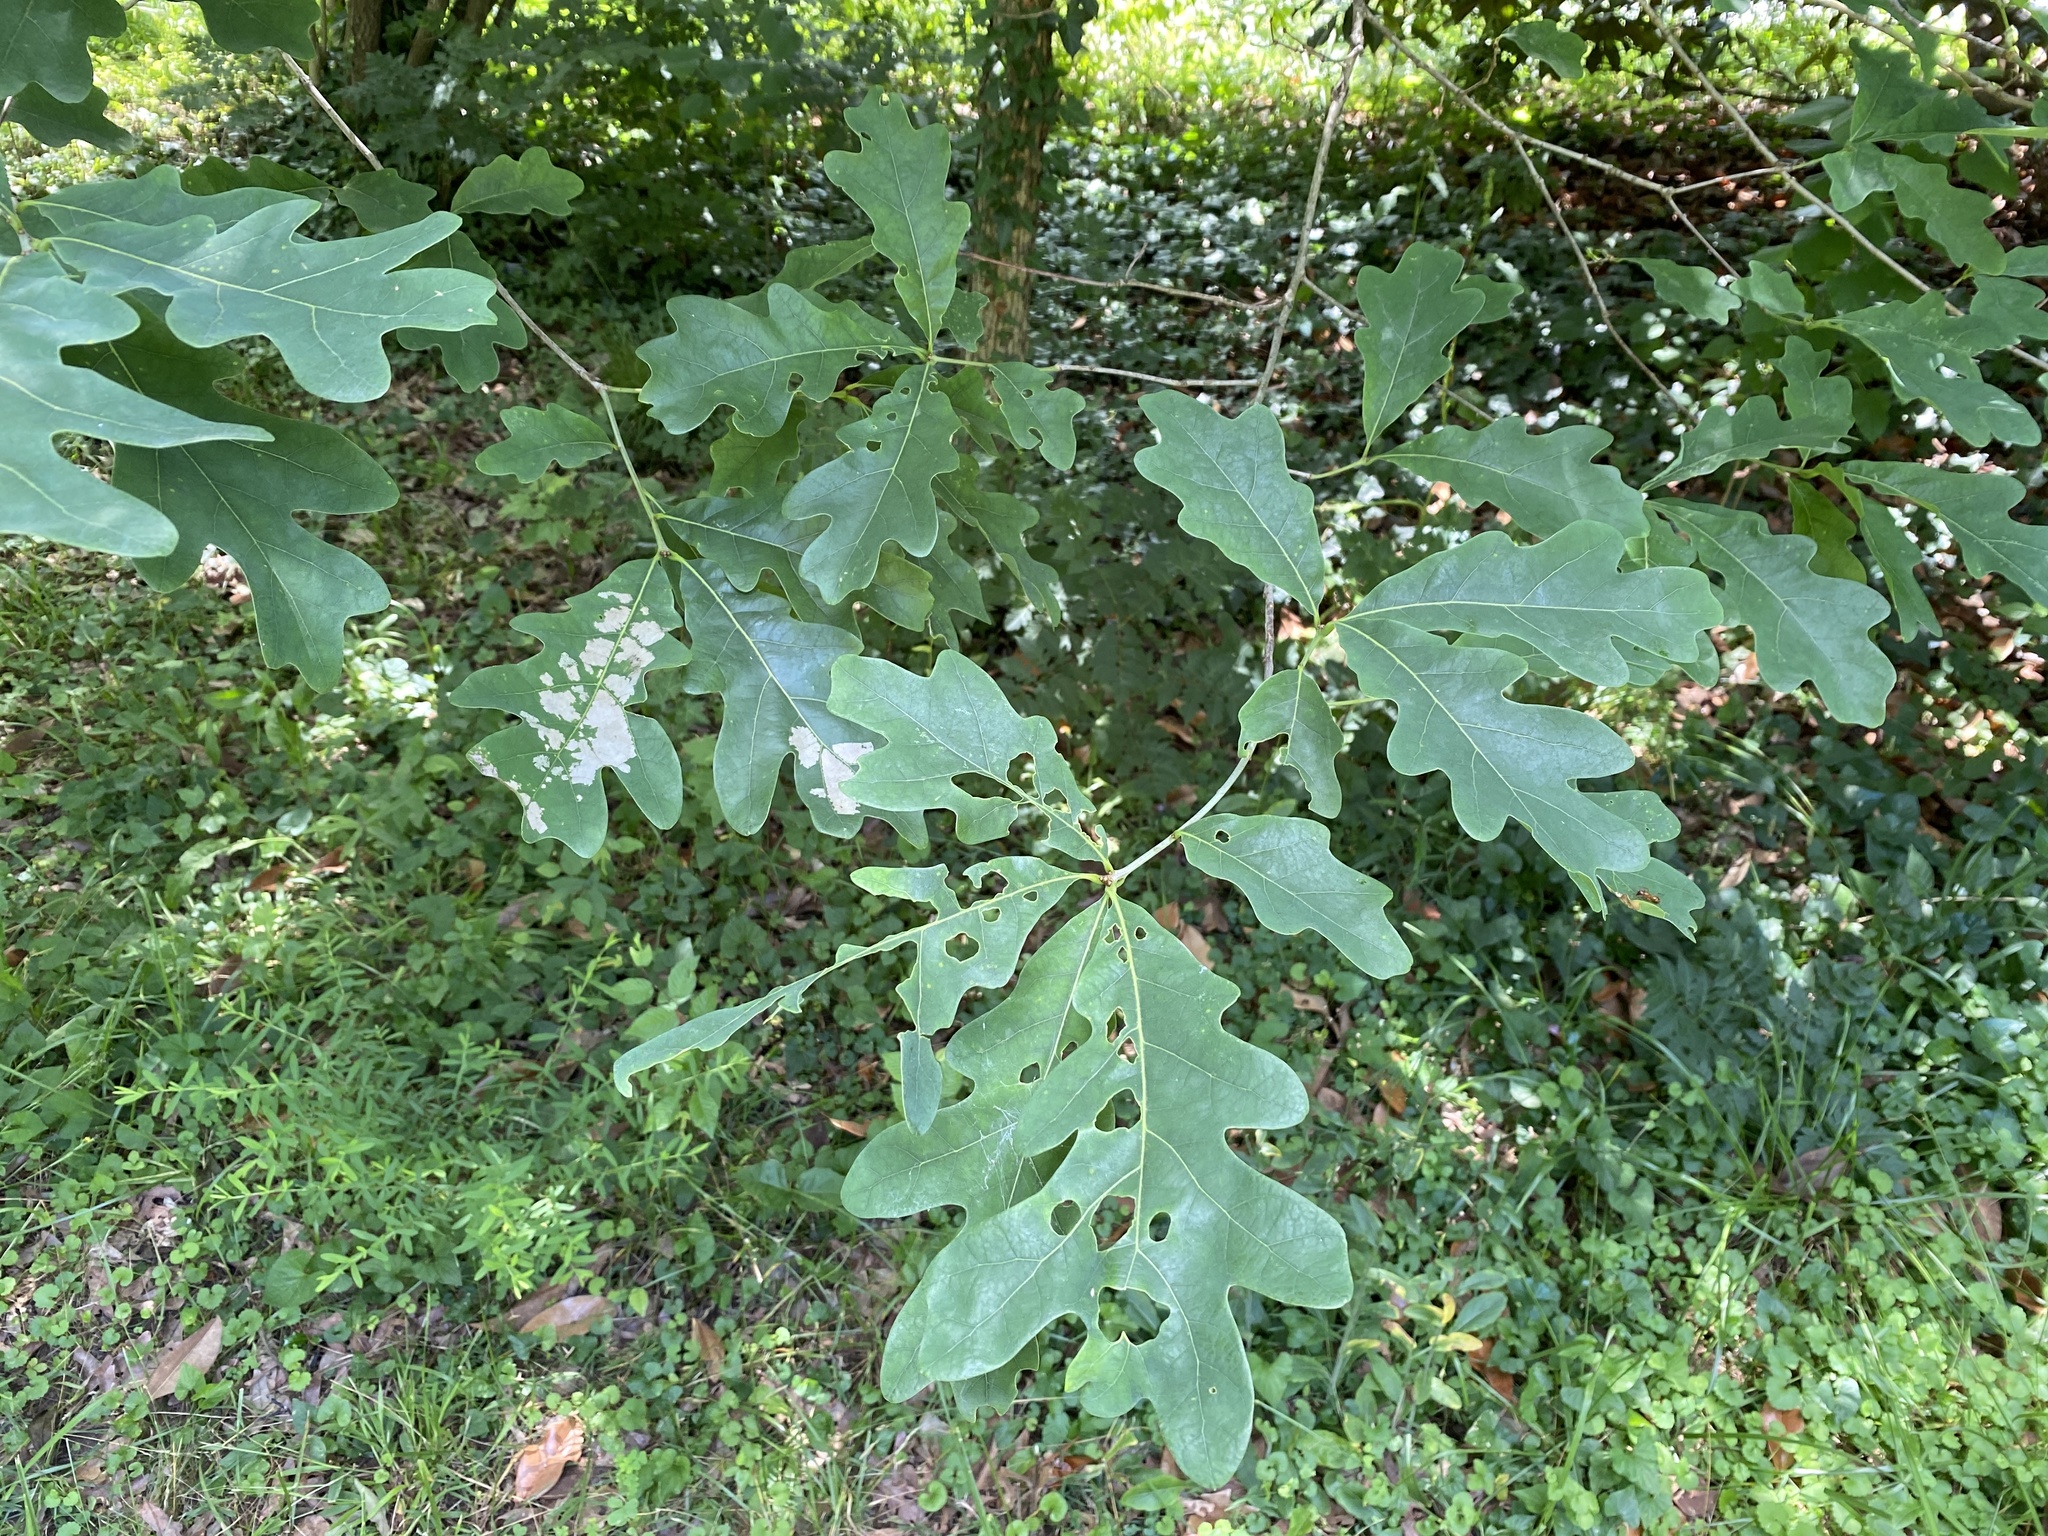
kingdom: Plantae
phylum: Tracheophyta
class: Magnoliopsida
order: Fagales
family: Fagaceae
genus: Quercus
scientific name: Quercus alba
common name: White oak
